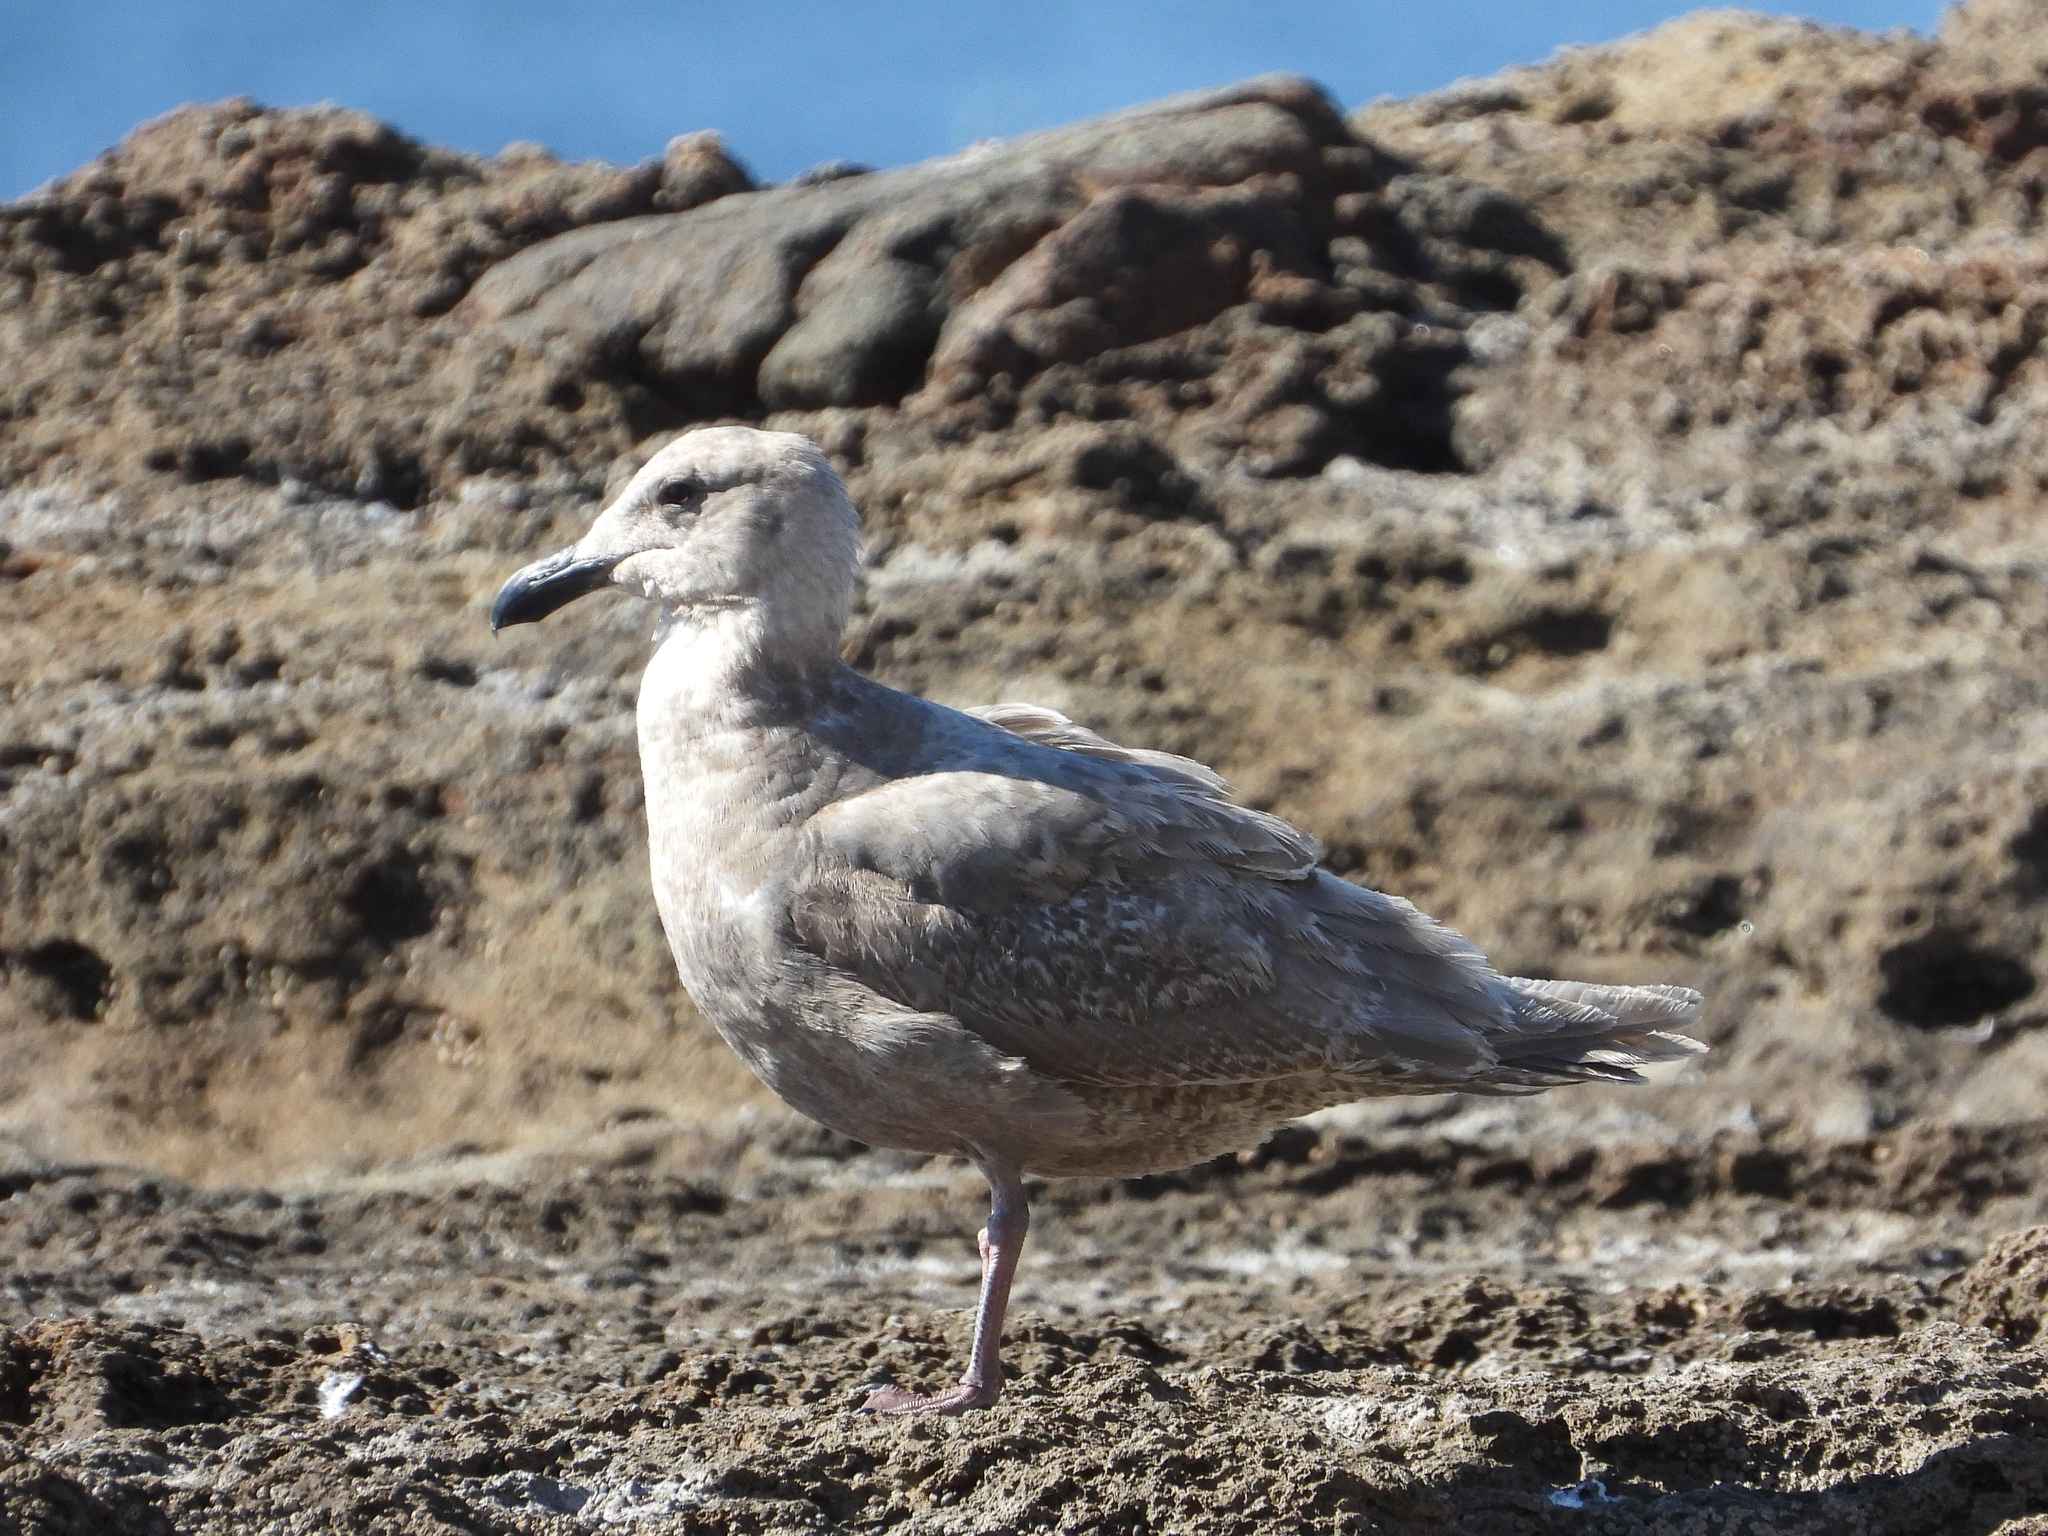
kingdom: Animalia
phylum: Chordata
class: Aves
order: Charadriiformes
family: Laridae
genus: Larus
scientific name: Larus glaucescens
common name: Glaucous-winged gull
